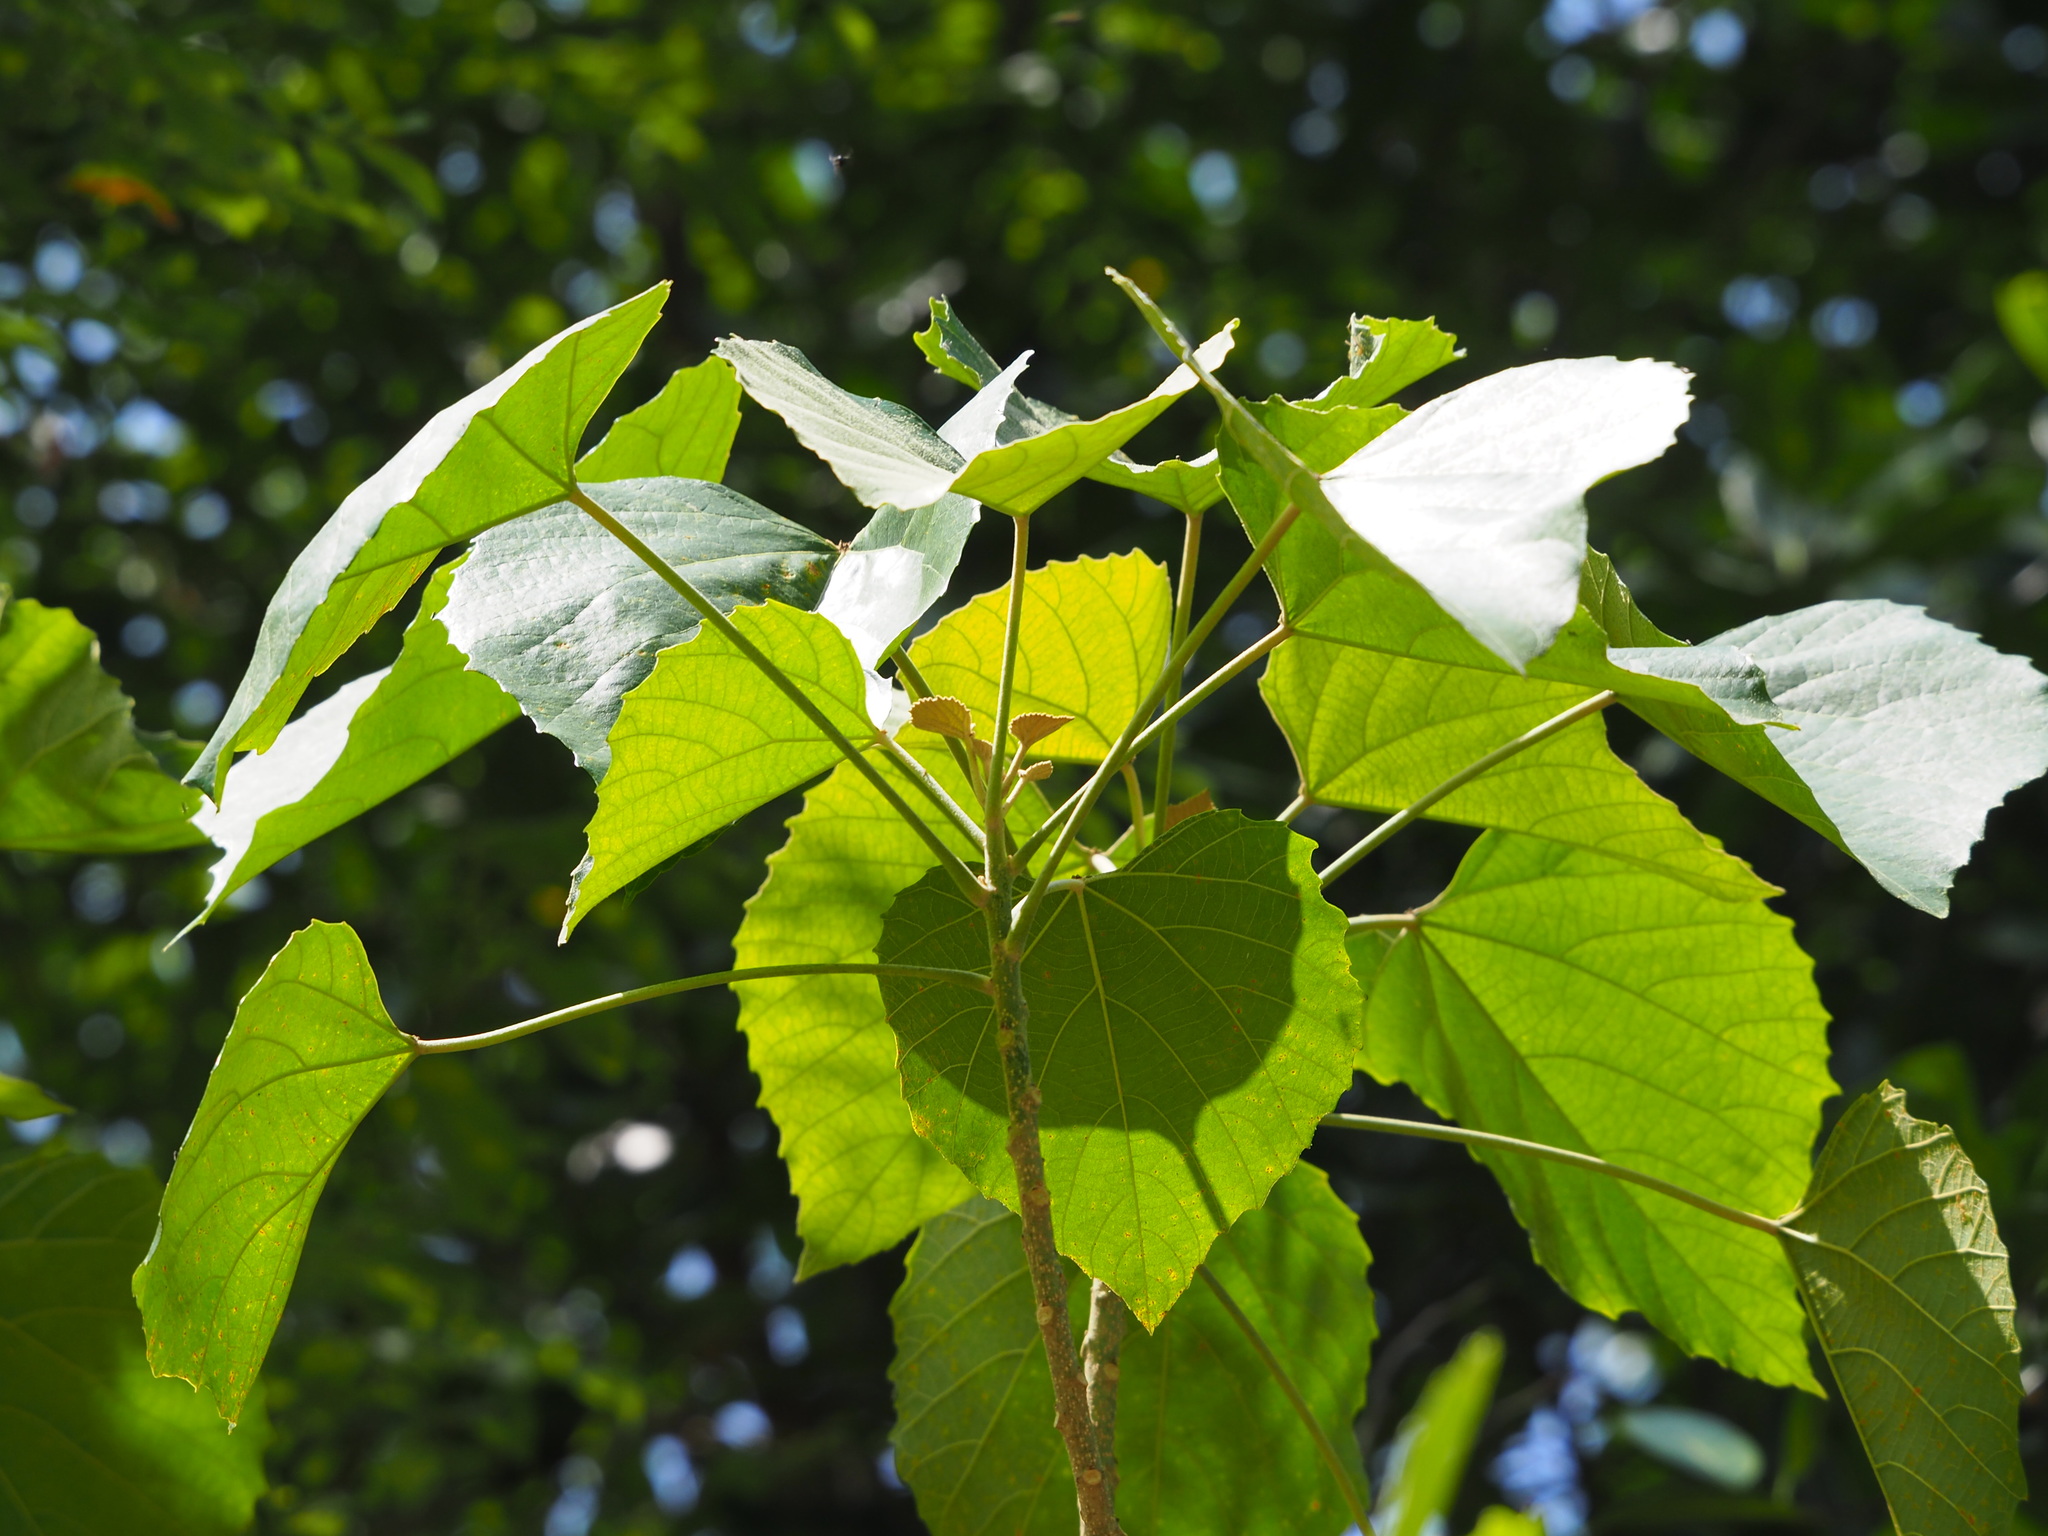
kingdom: Plantae
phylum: Tracheophyta
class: Magnoliopsida
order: Malpighiales
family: Euphorbiaceae
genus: Melanolepis
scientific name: Melanolepis multiglandulosa
